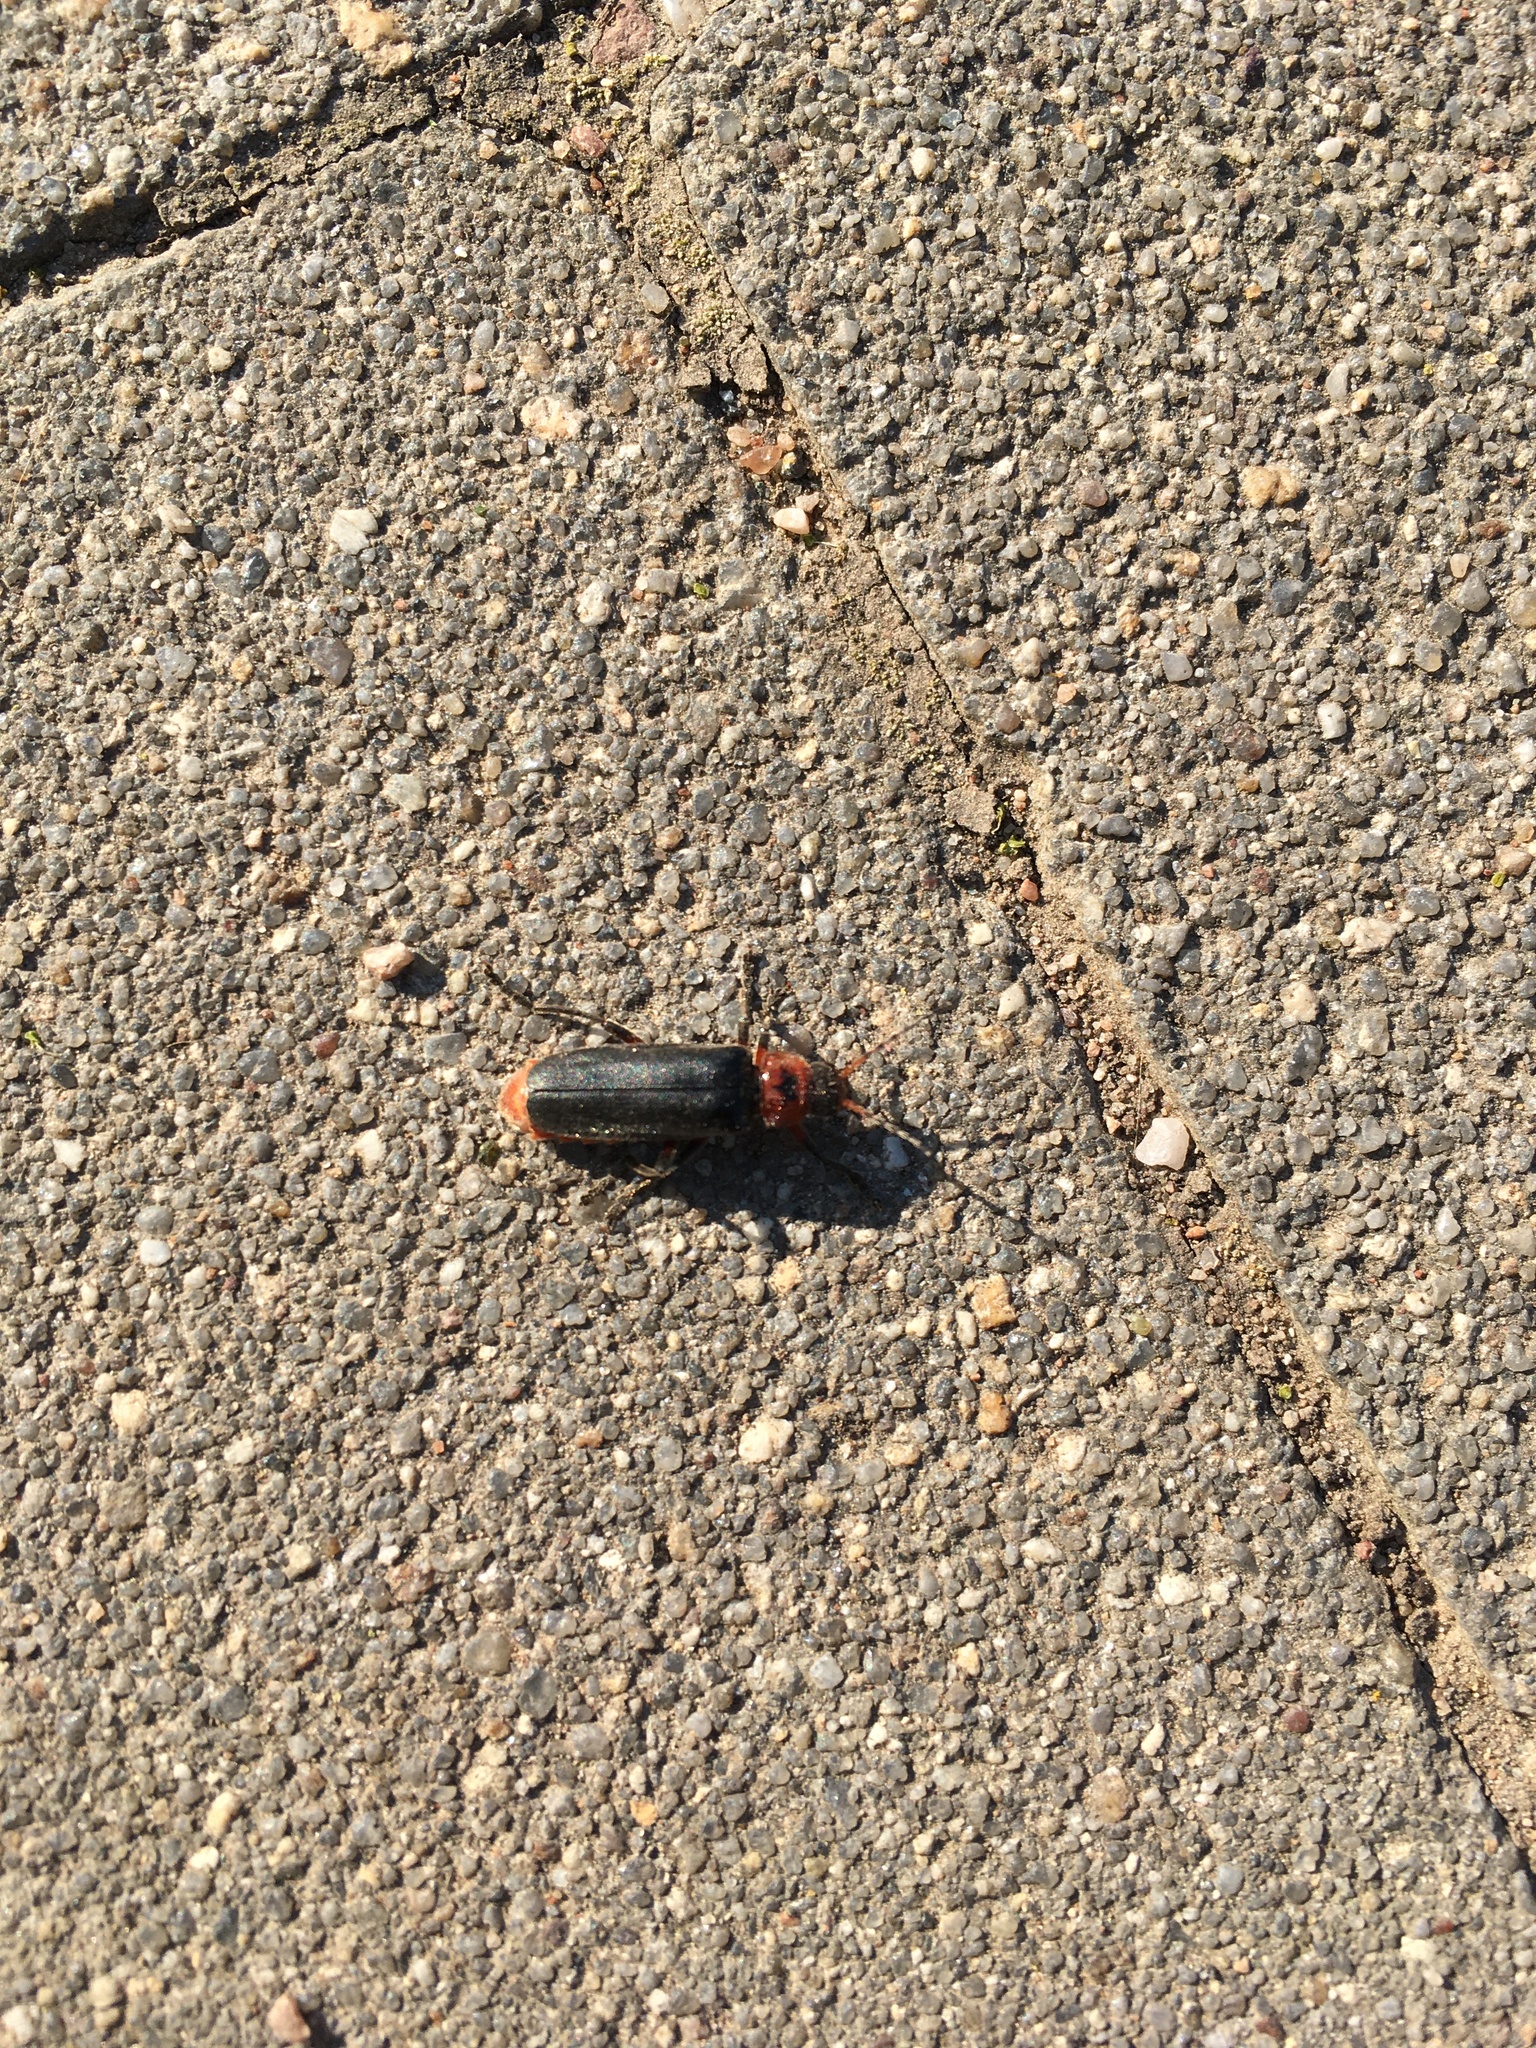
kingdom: Animalia
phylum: Arthropoda
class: Insecta
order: Coleoptera
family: Cantharidae
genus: Cantharis
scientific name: Cantharis rustica
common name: Soldier beetle
